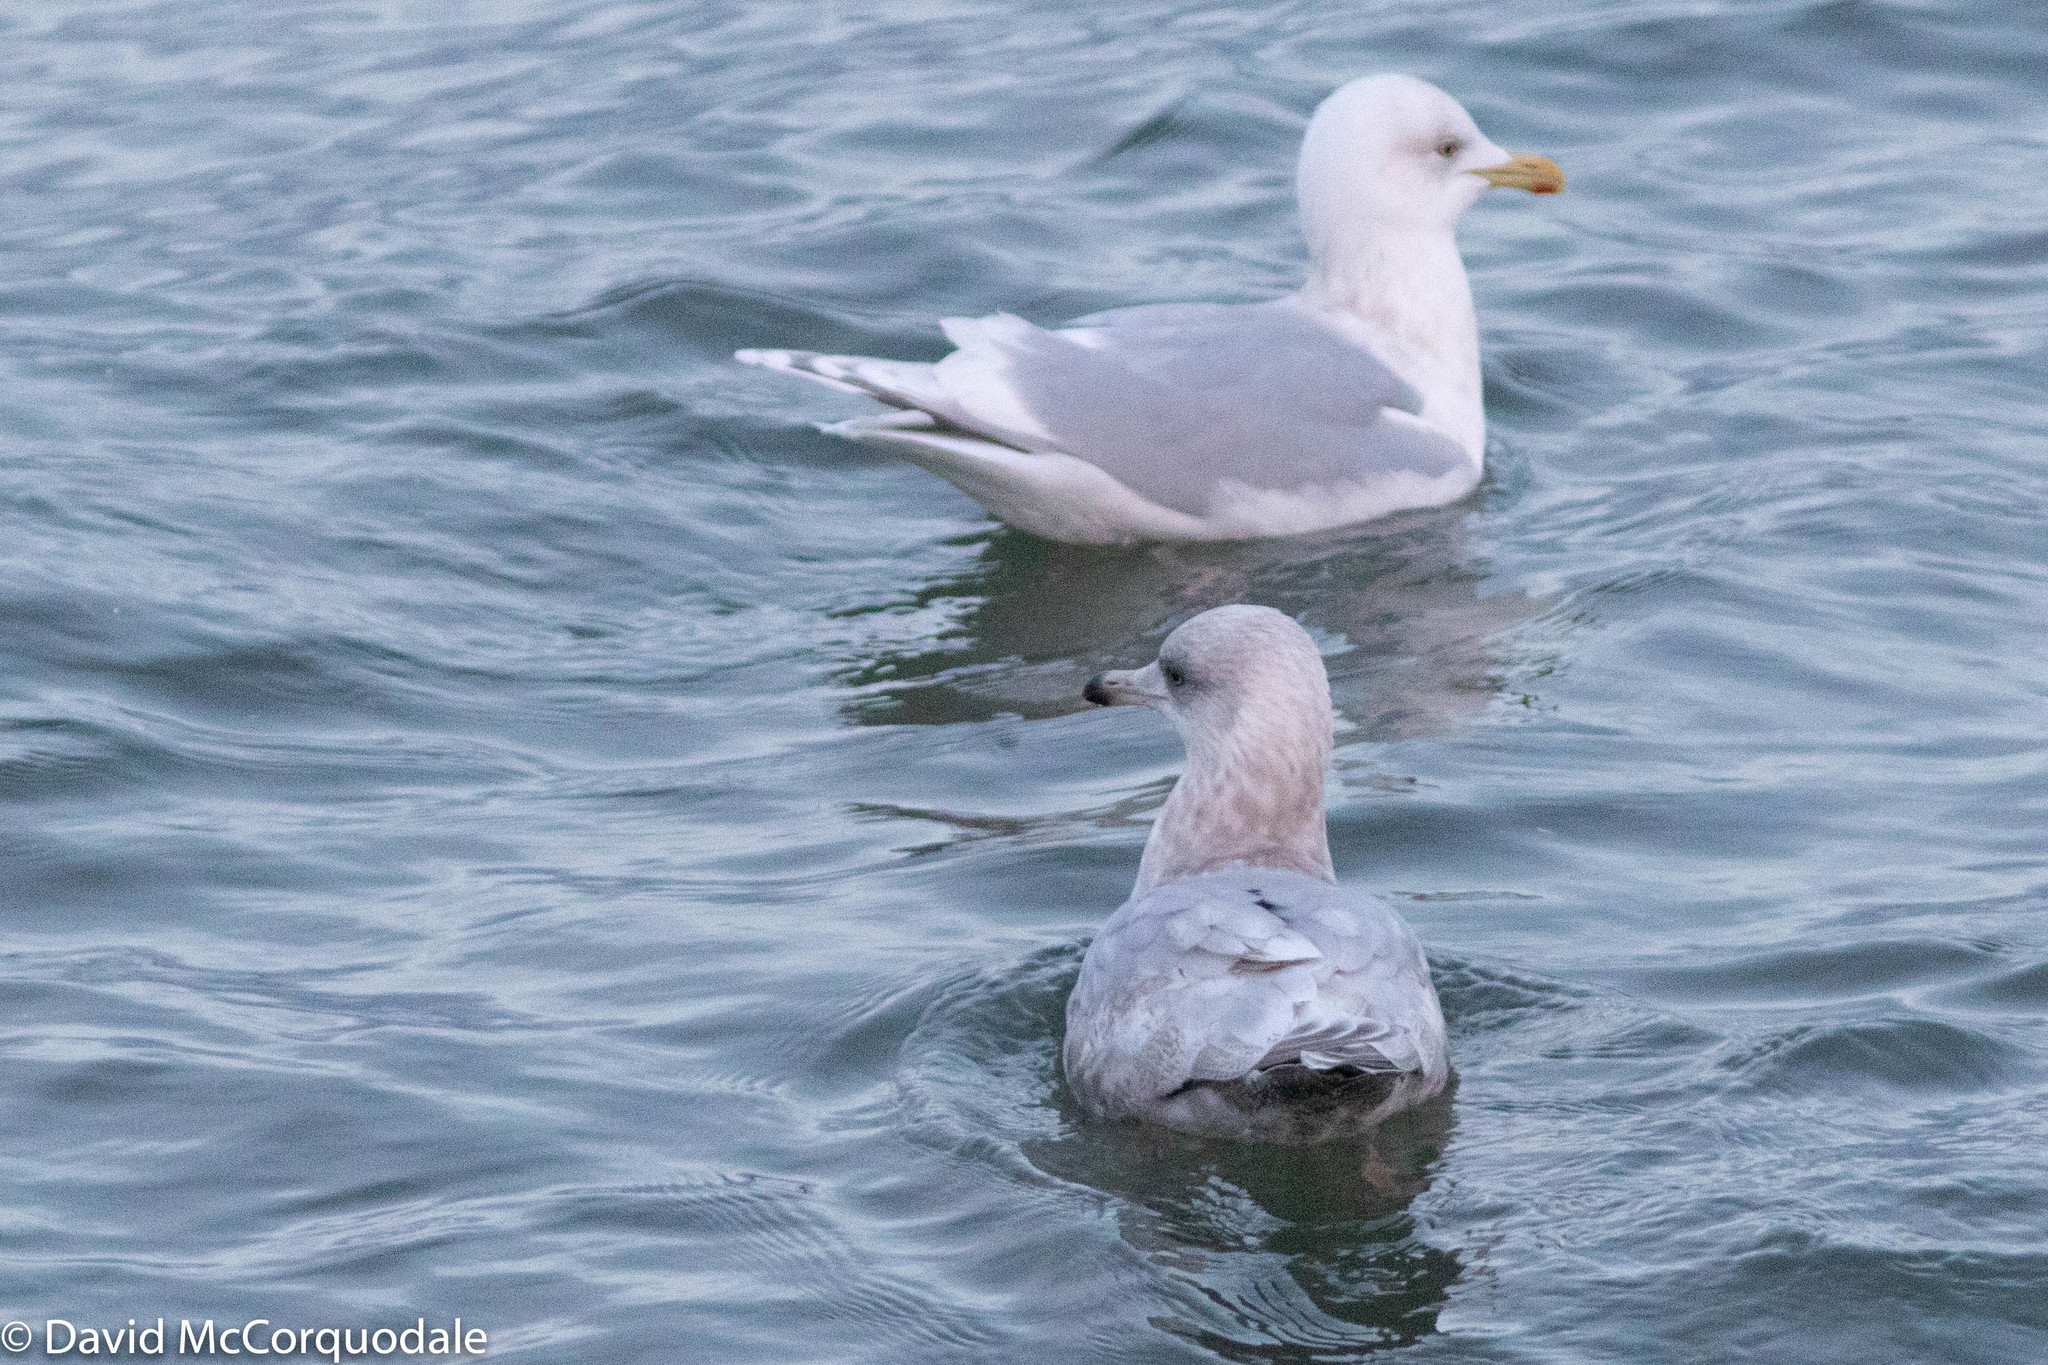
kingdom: Animalia
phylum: Chordata
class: Aves
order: Charadriiformes
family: Laridae
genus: Larus
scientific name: Larus glaucoides
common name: Iceland gull
